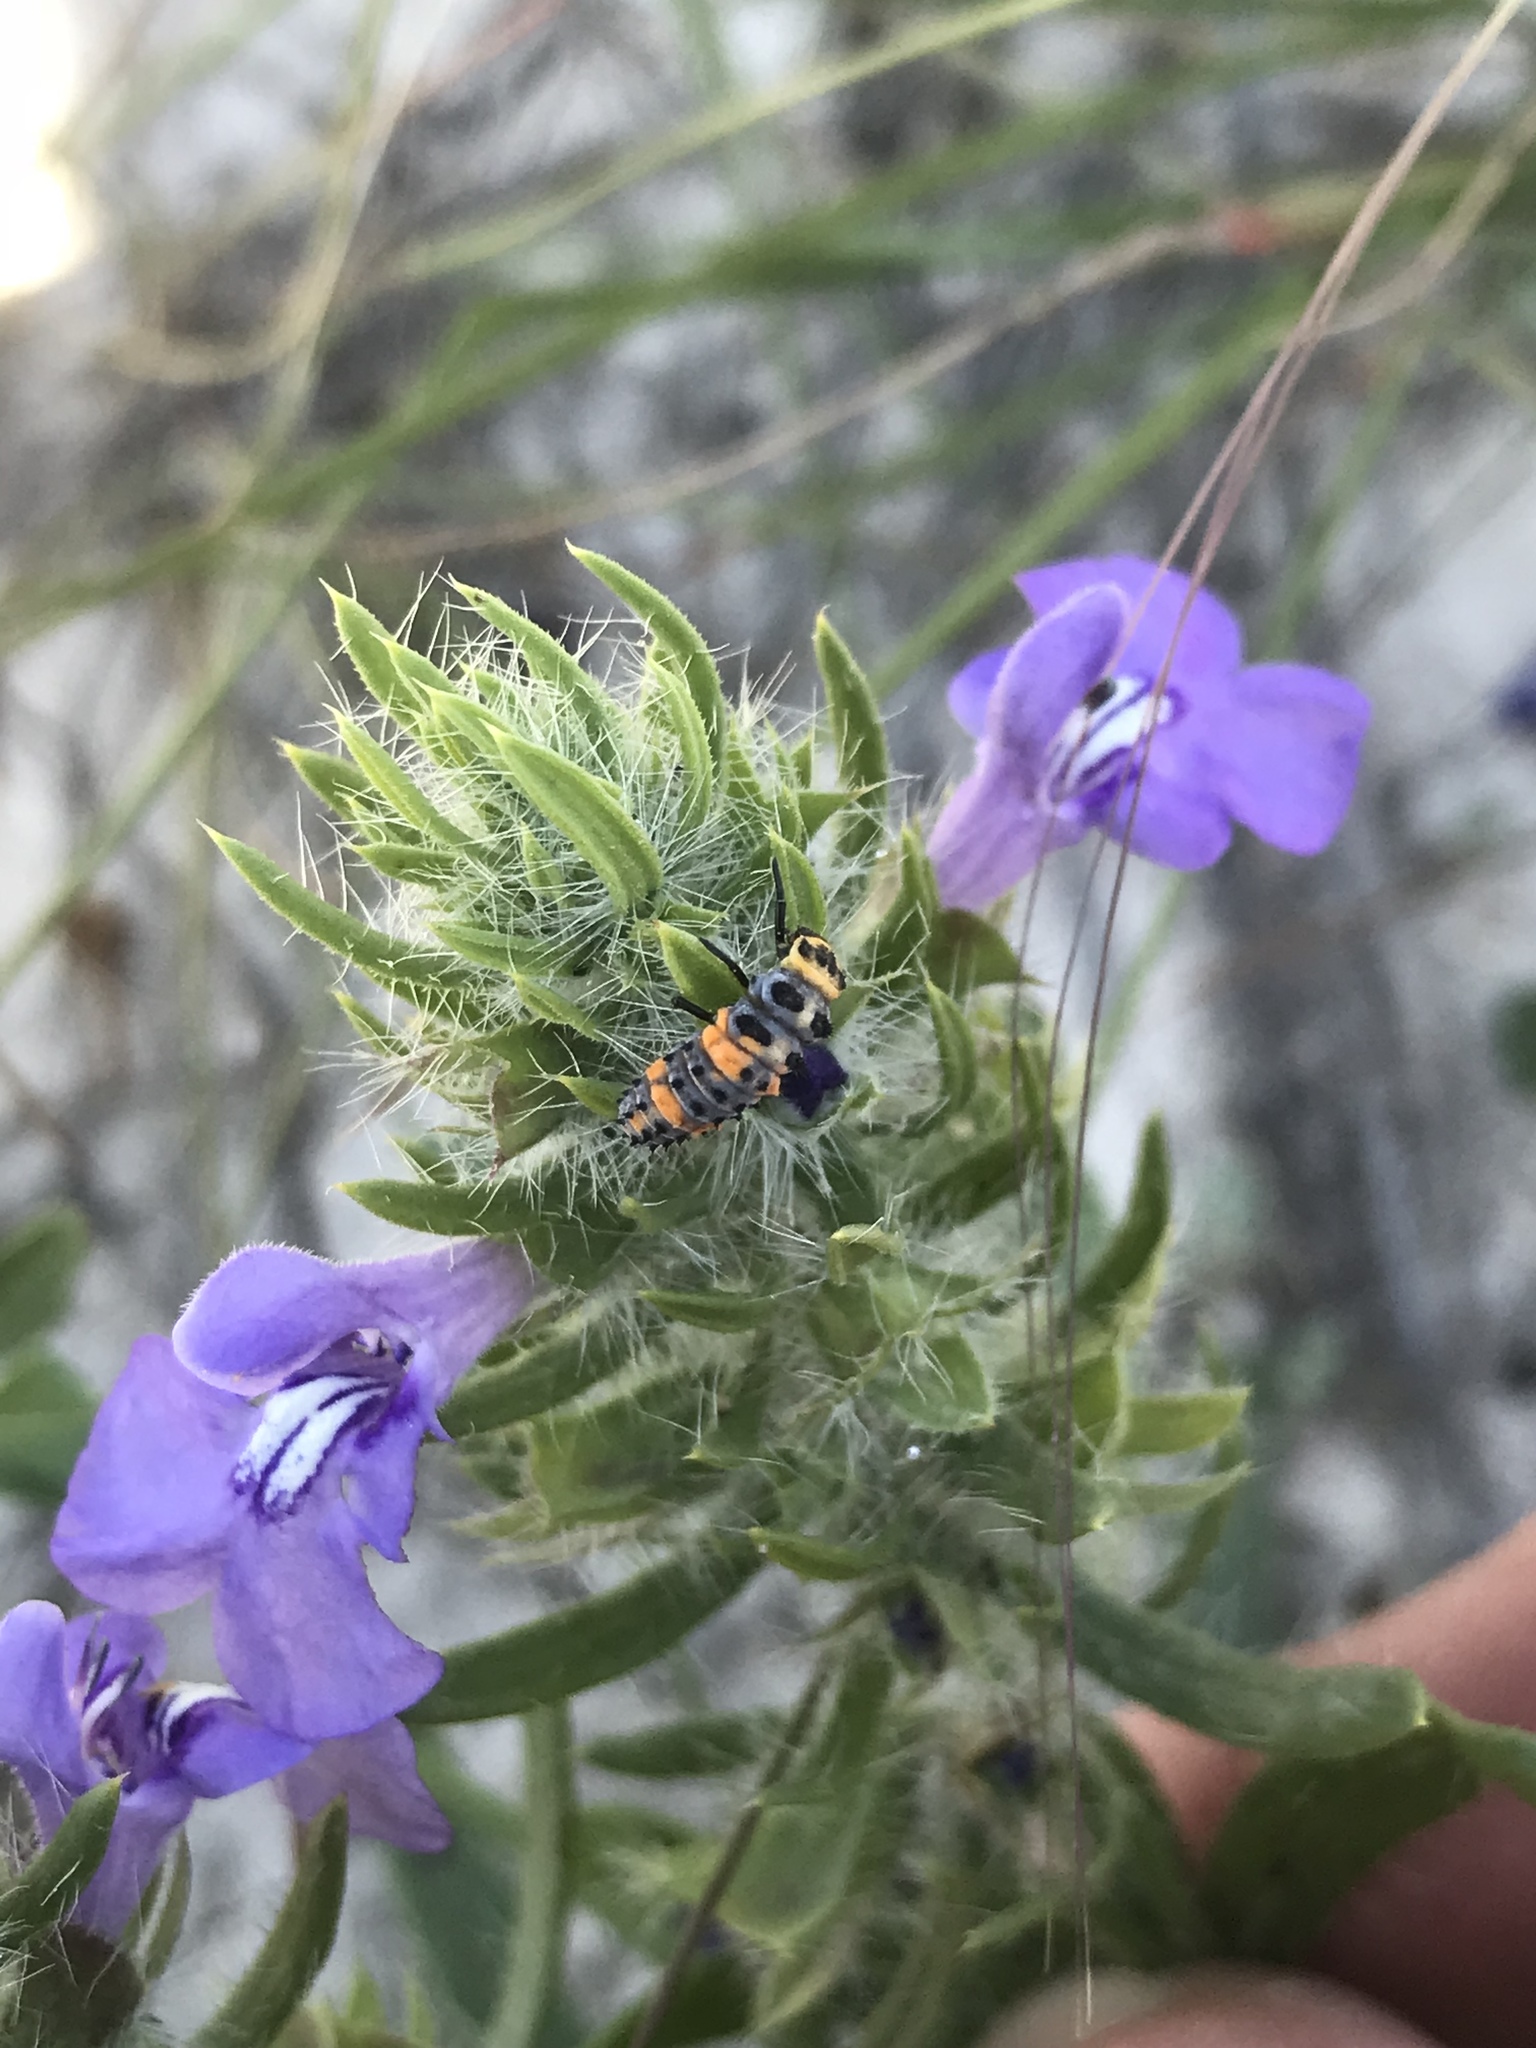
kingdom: Animalia
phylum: Arthropoda
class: Insecta
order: Coleoptera
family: Coccinellidae
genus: Hippodamia
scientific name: Hippodamia convergens
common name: Convergent lady beetle
